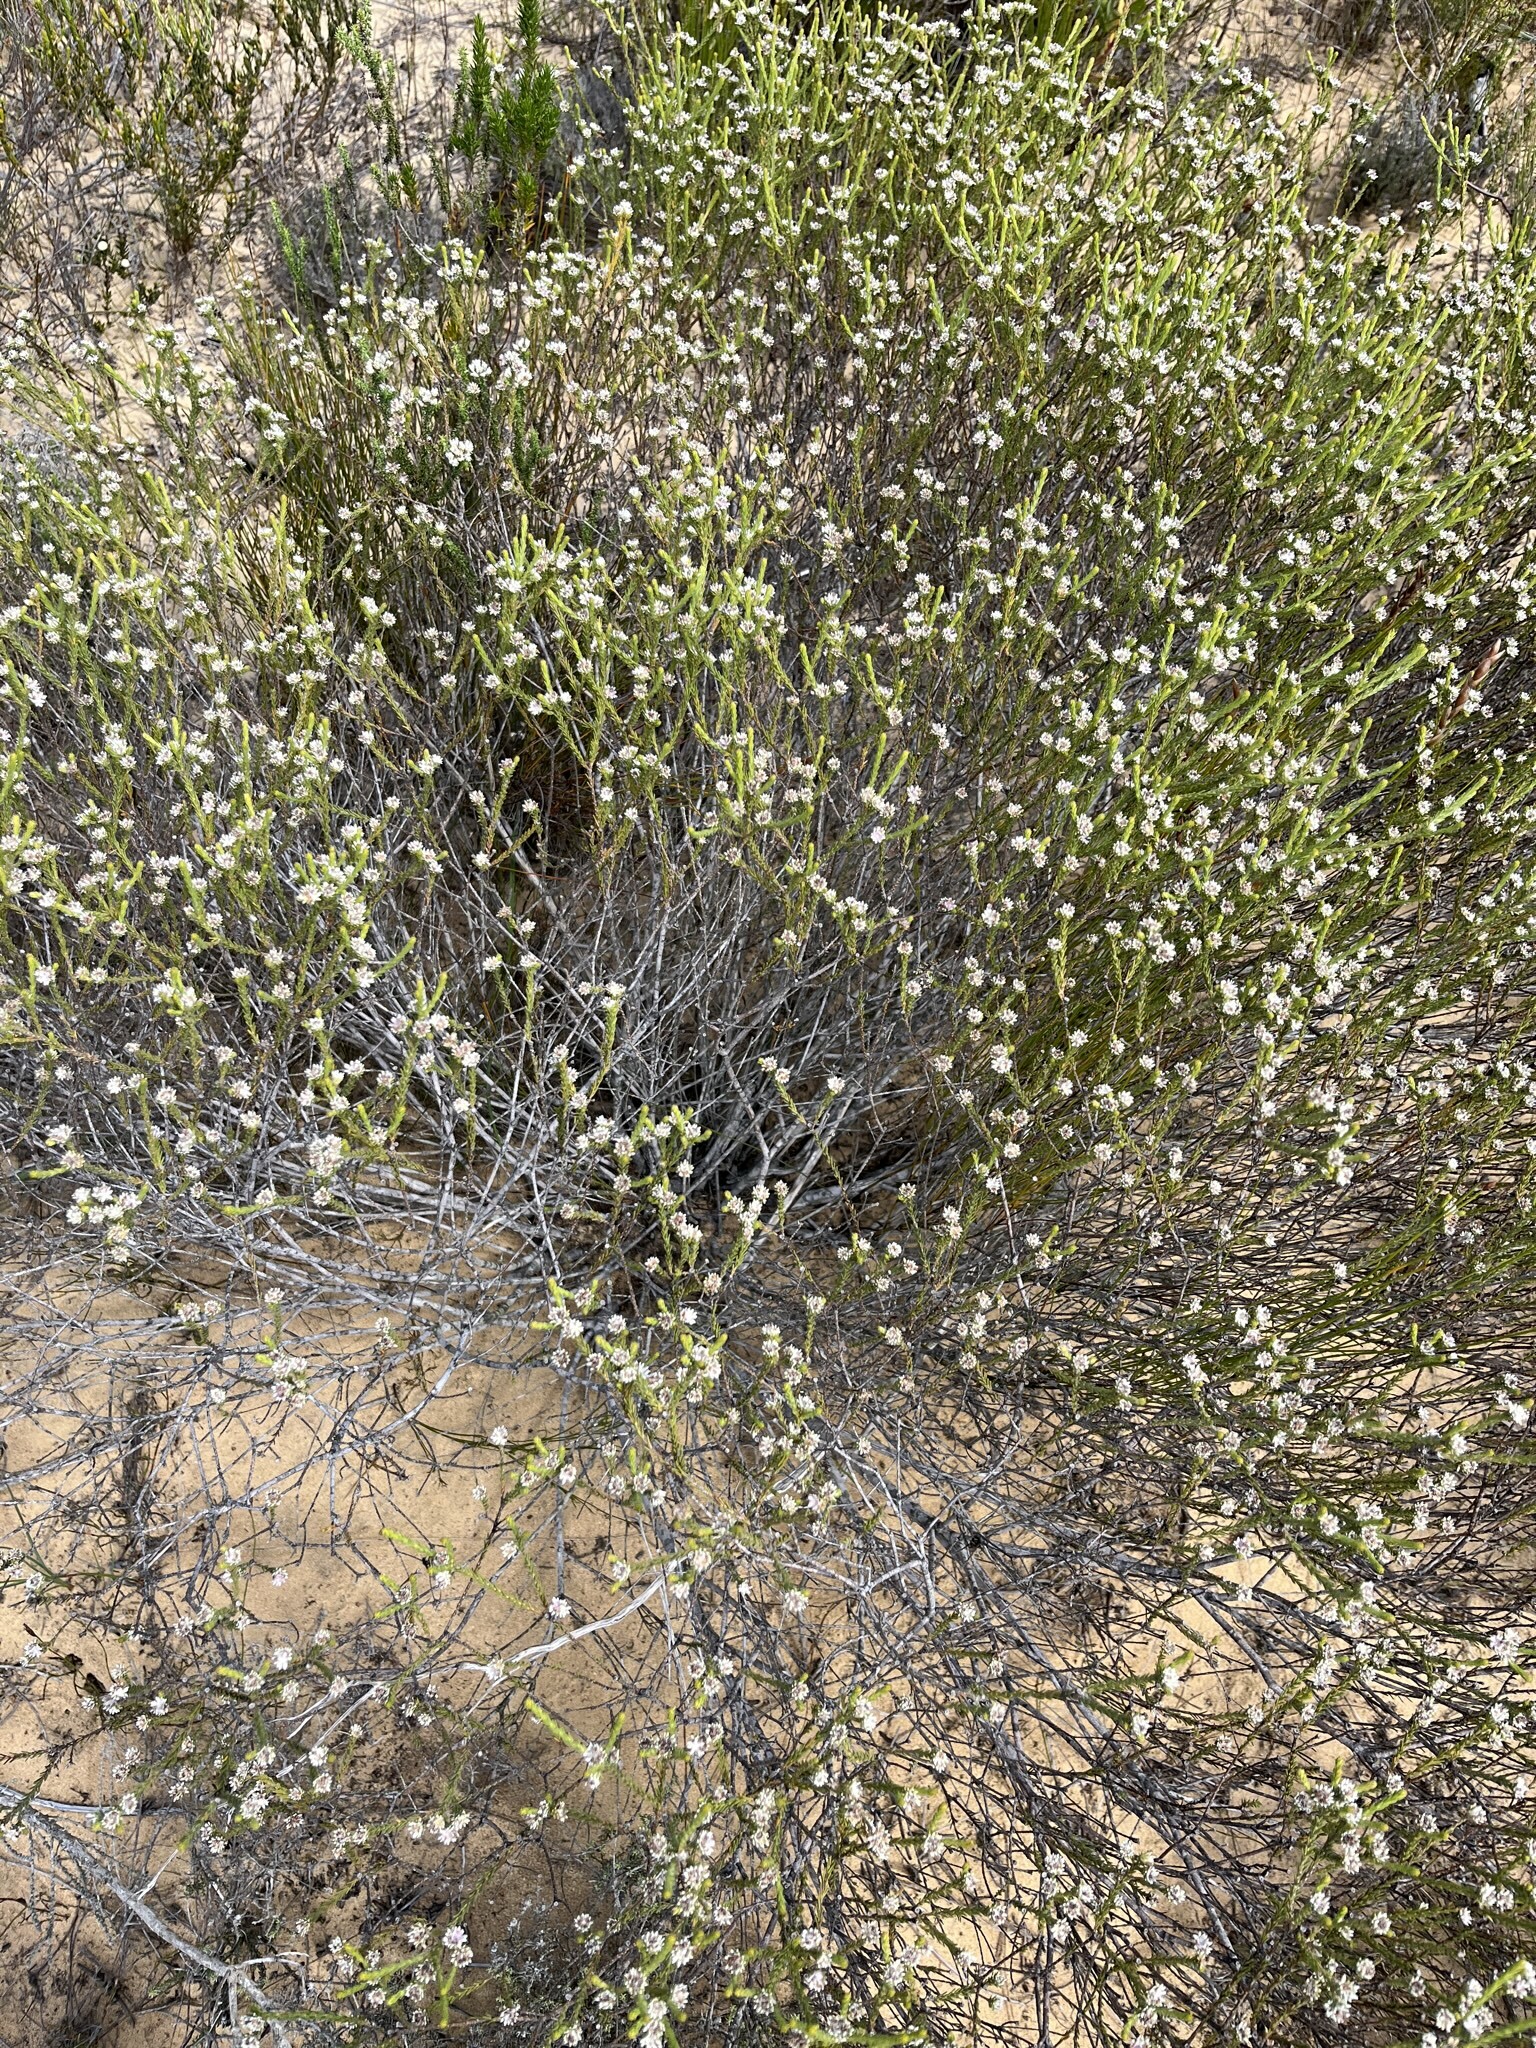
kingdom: Plantae
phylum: Tracheophyta
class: Magnoliopsida
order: Bruniales
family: Bruniaceae
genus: Staavia
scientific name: Staavia radiata
